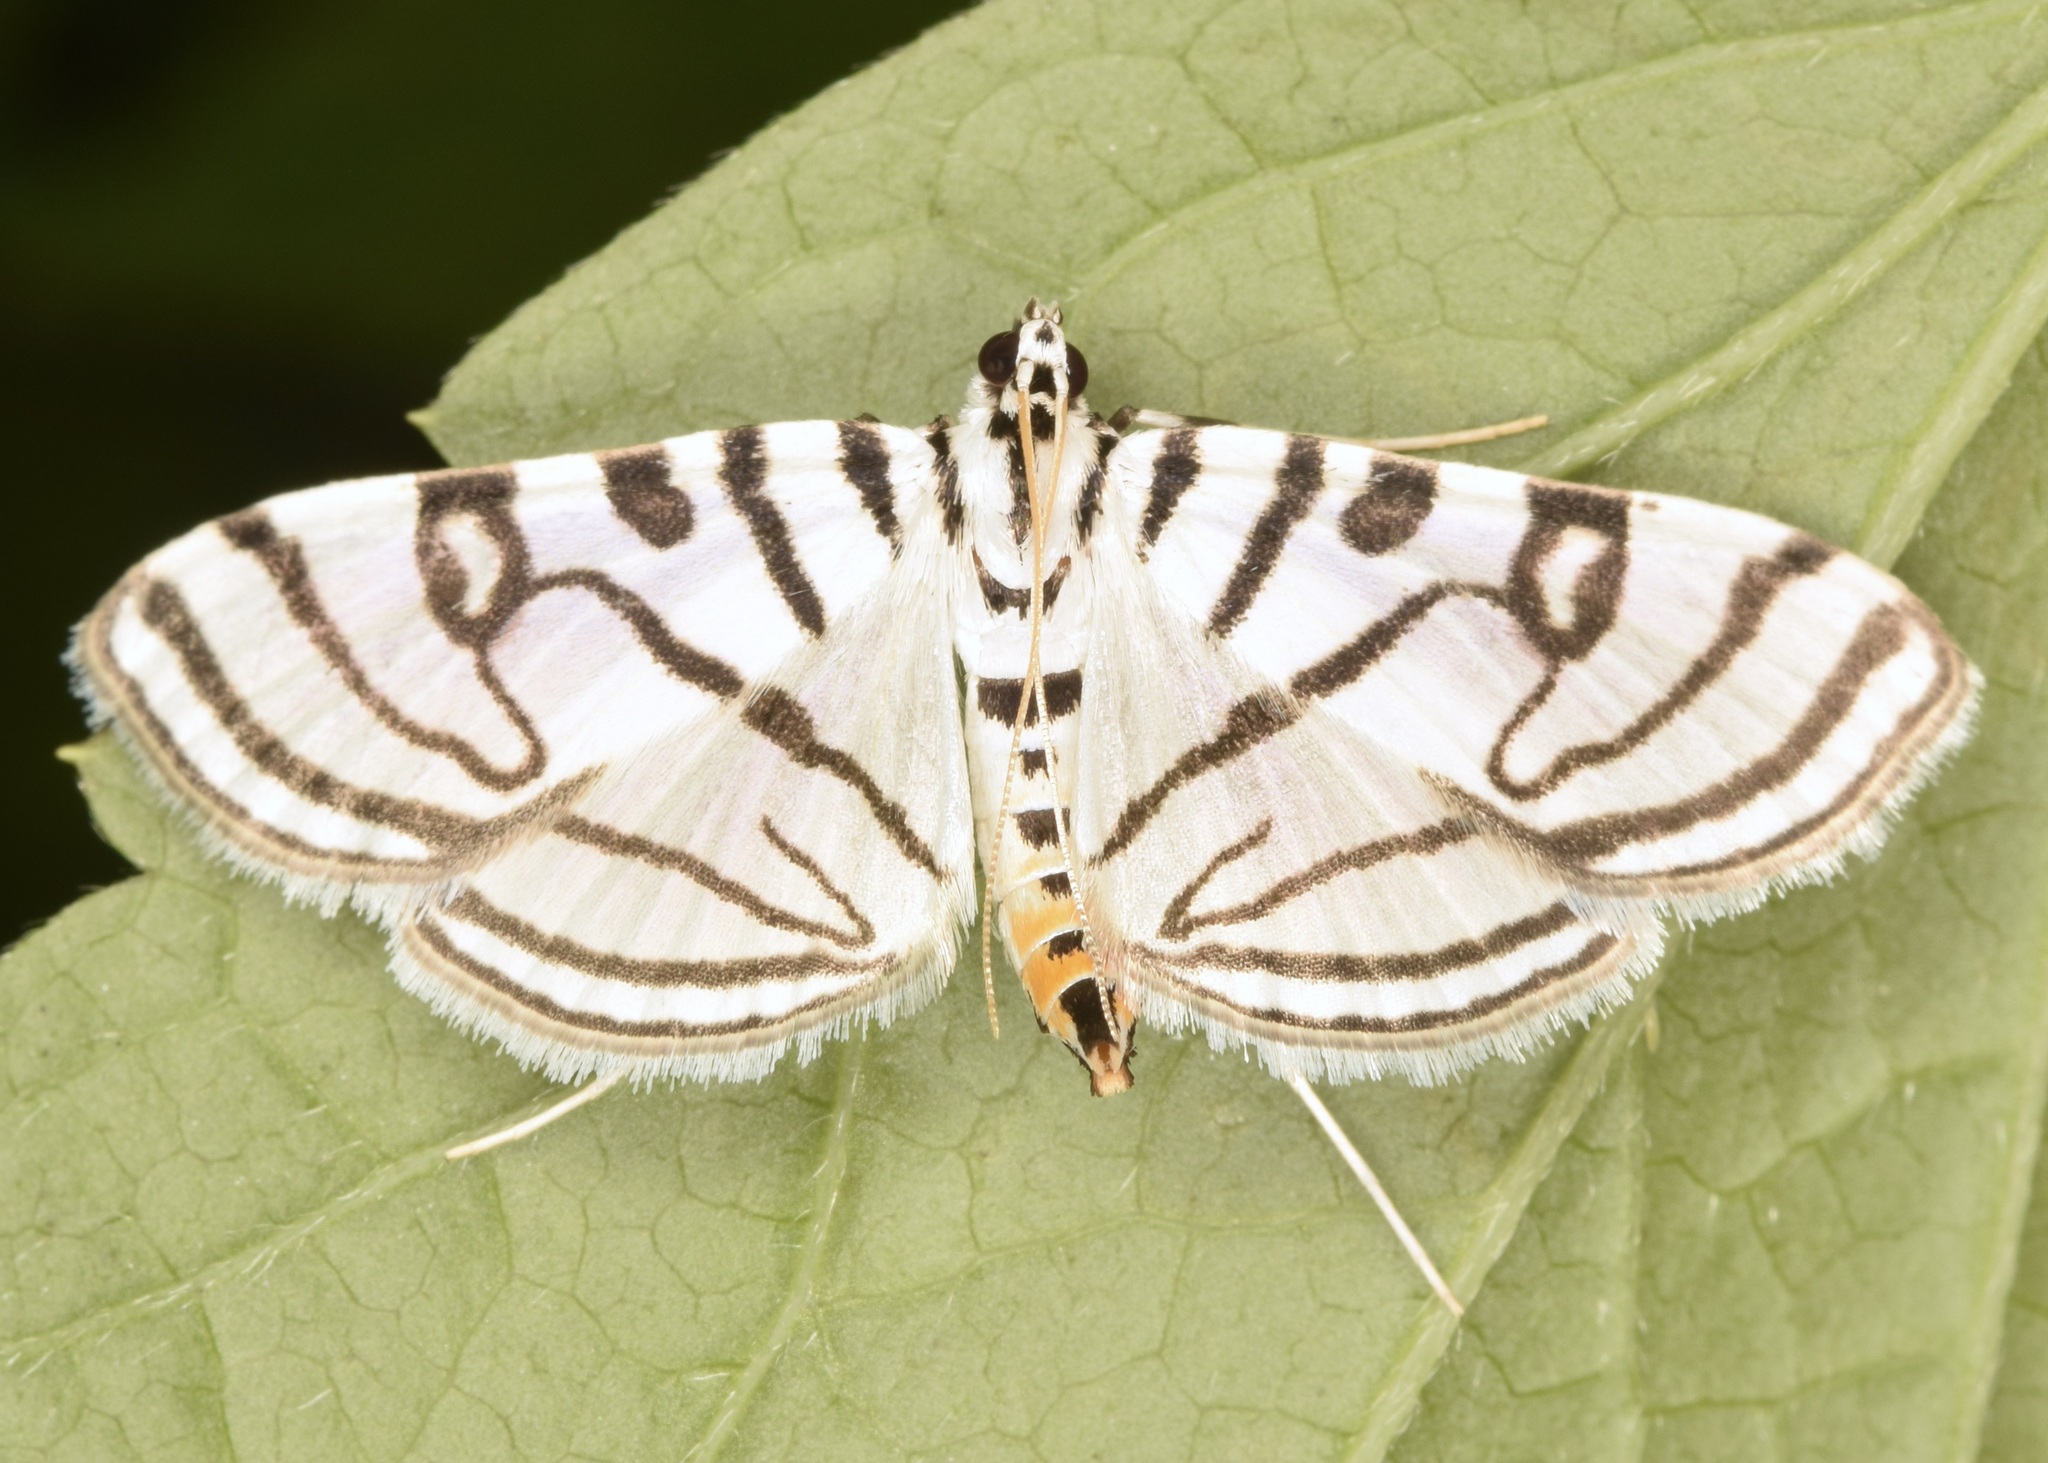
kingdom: Animalia
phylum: Arthropoda
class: Insecta
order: Lepidoptera
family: Crambidae
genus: Conchylodes
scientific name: Conchylodes ovulalis
